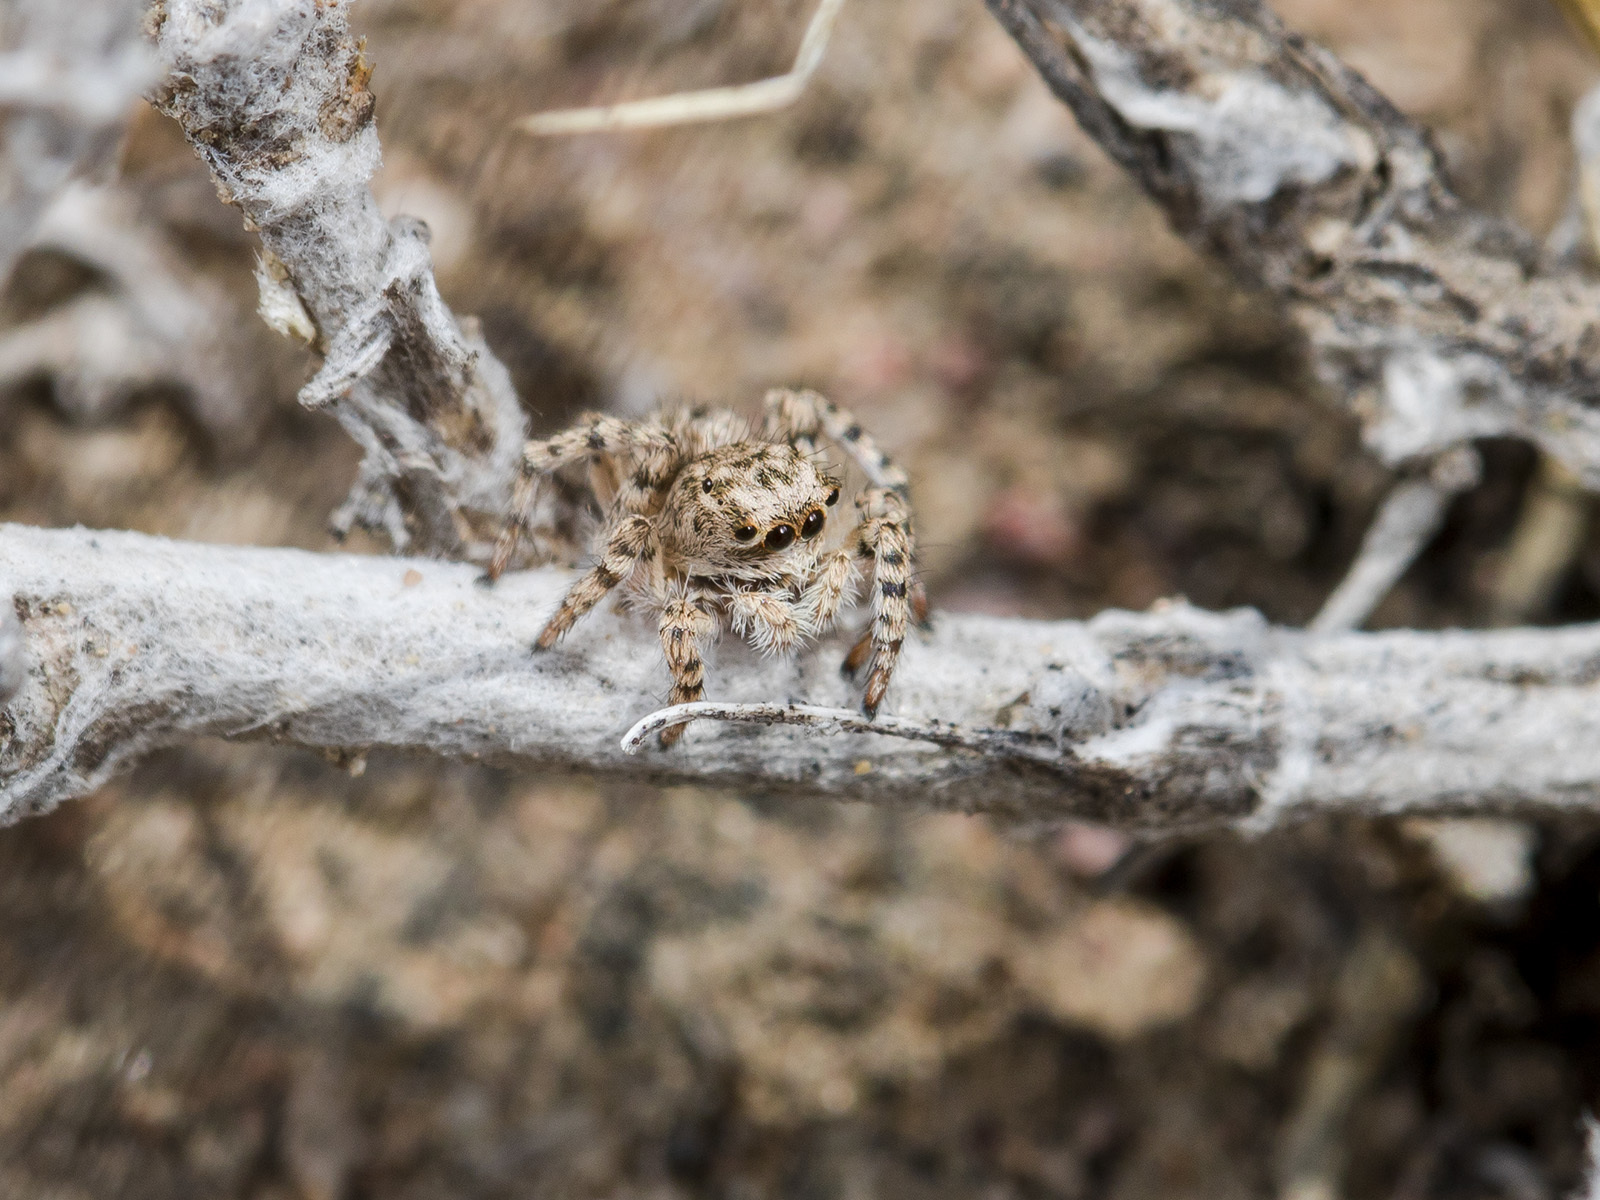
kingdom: Animalia
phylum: Arthropoda
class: Arachnida
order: Araneae
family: Salticidae
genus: Aelurillus
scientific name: Aelurillus dubatolovi
